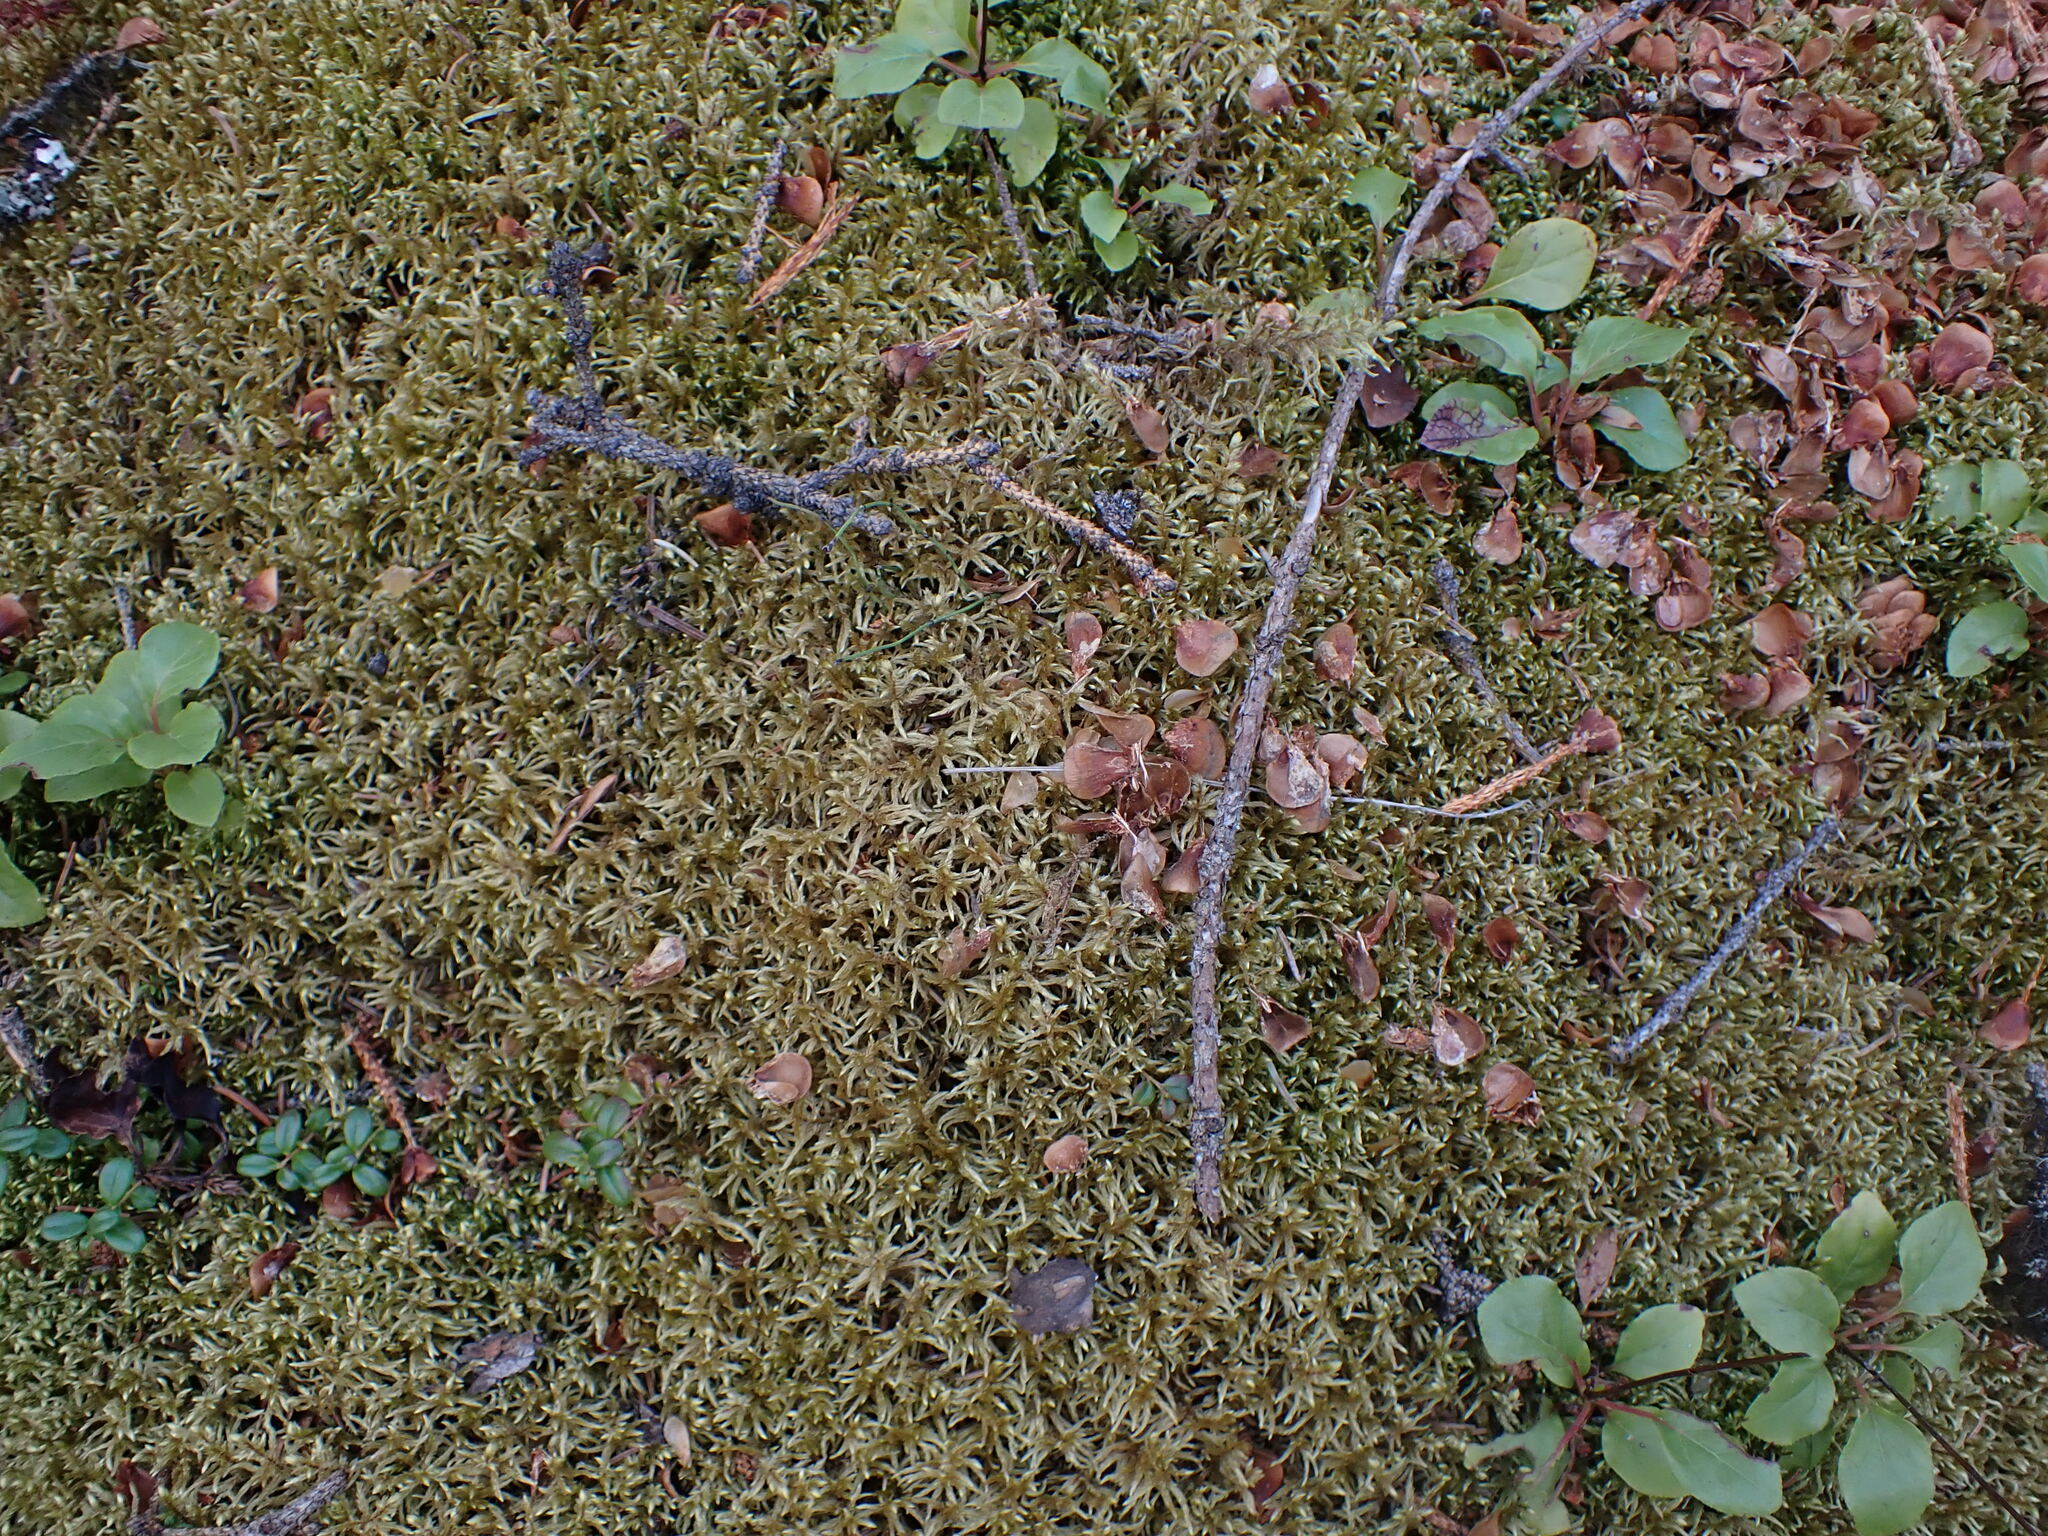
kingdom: Plantae
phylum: Bryophyta
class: Bryopsida
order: Hypnales
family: Hylocomiaceae
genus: Pleurozium
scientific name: Pleurozium schreberi
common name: Red-stemmed feather moss
